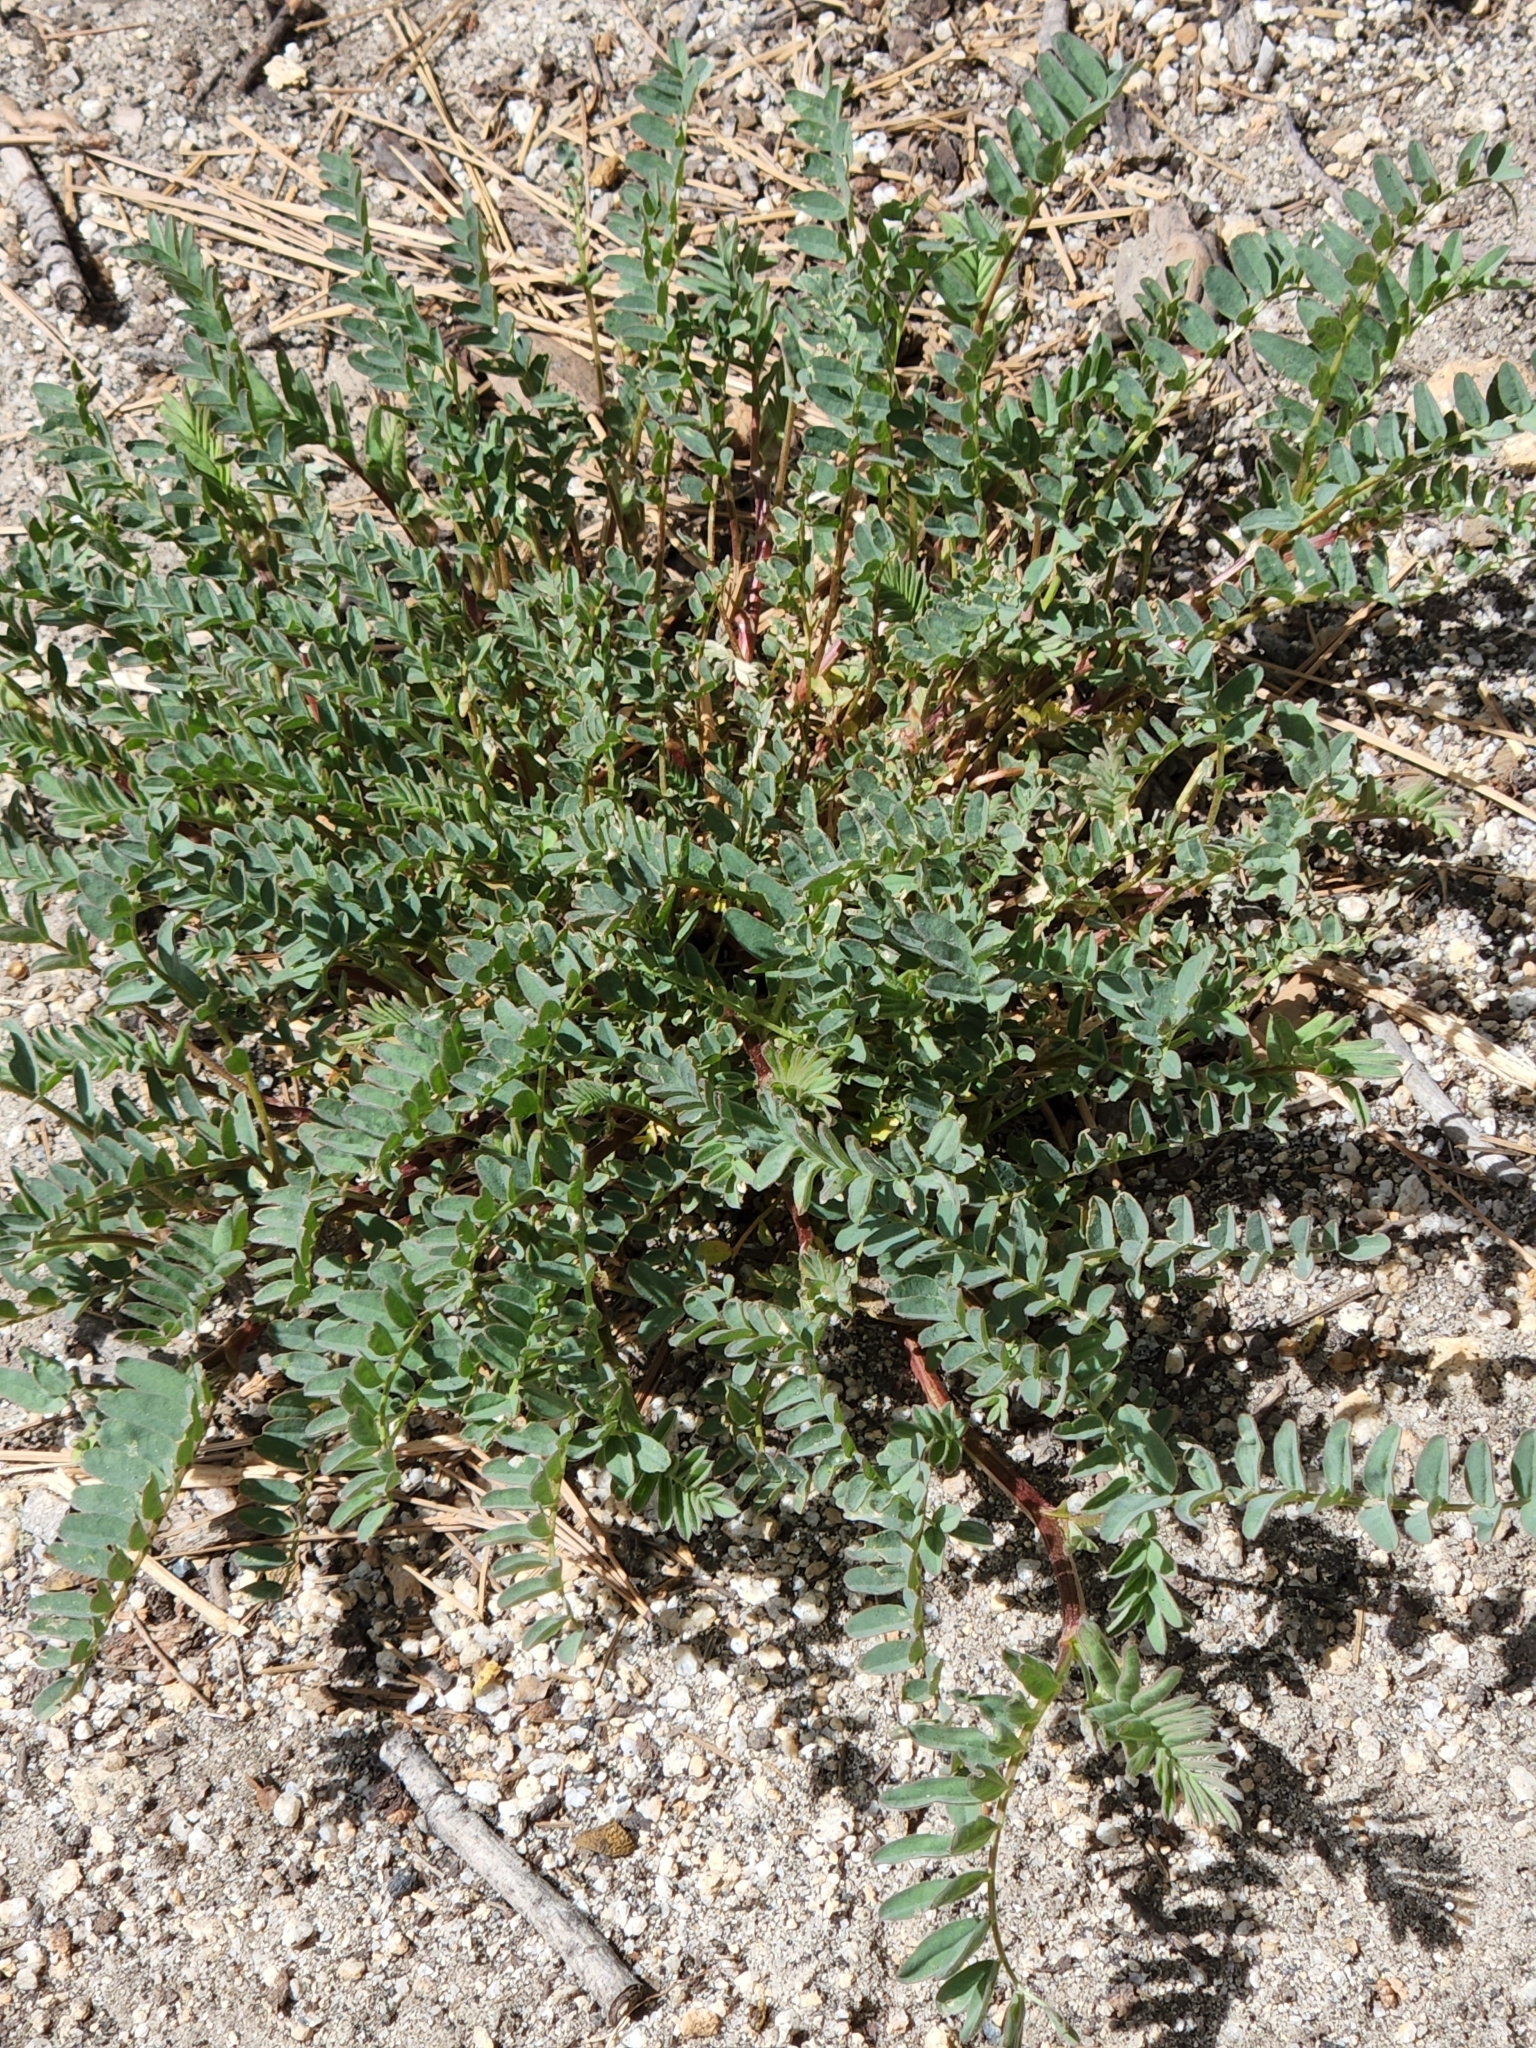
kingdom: Plantae
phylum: Tracheophyta
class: Magnoliopsida
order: Fabales
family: Fabaceae
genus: Astragalus
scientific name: Astragalus douglasii
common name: Jacumba milkvetch
